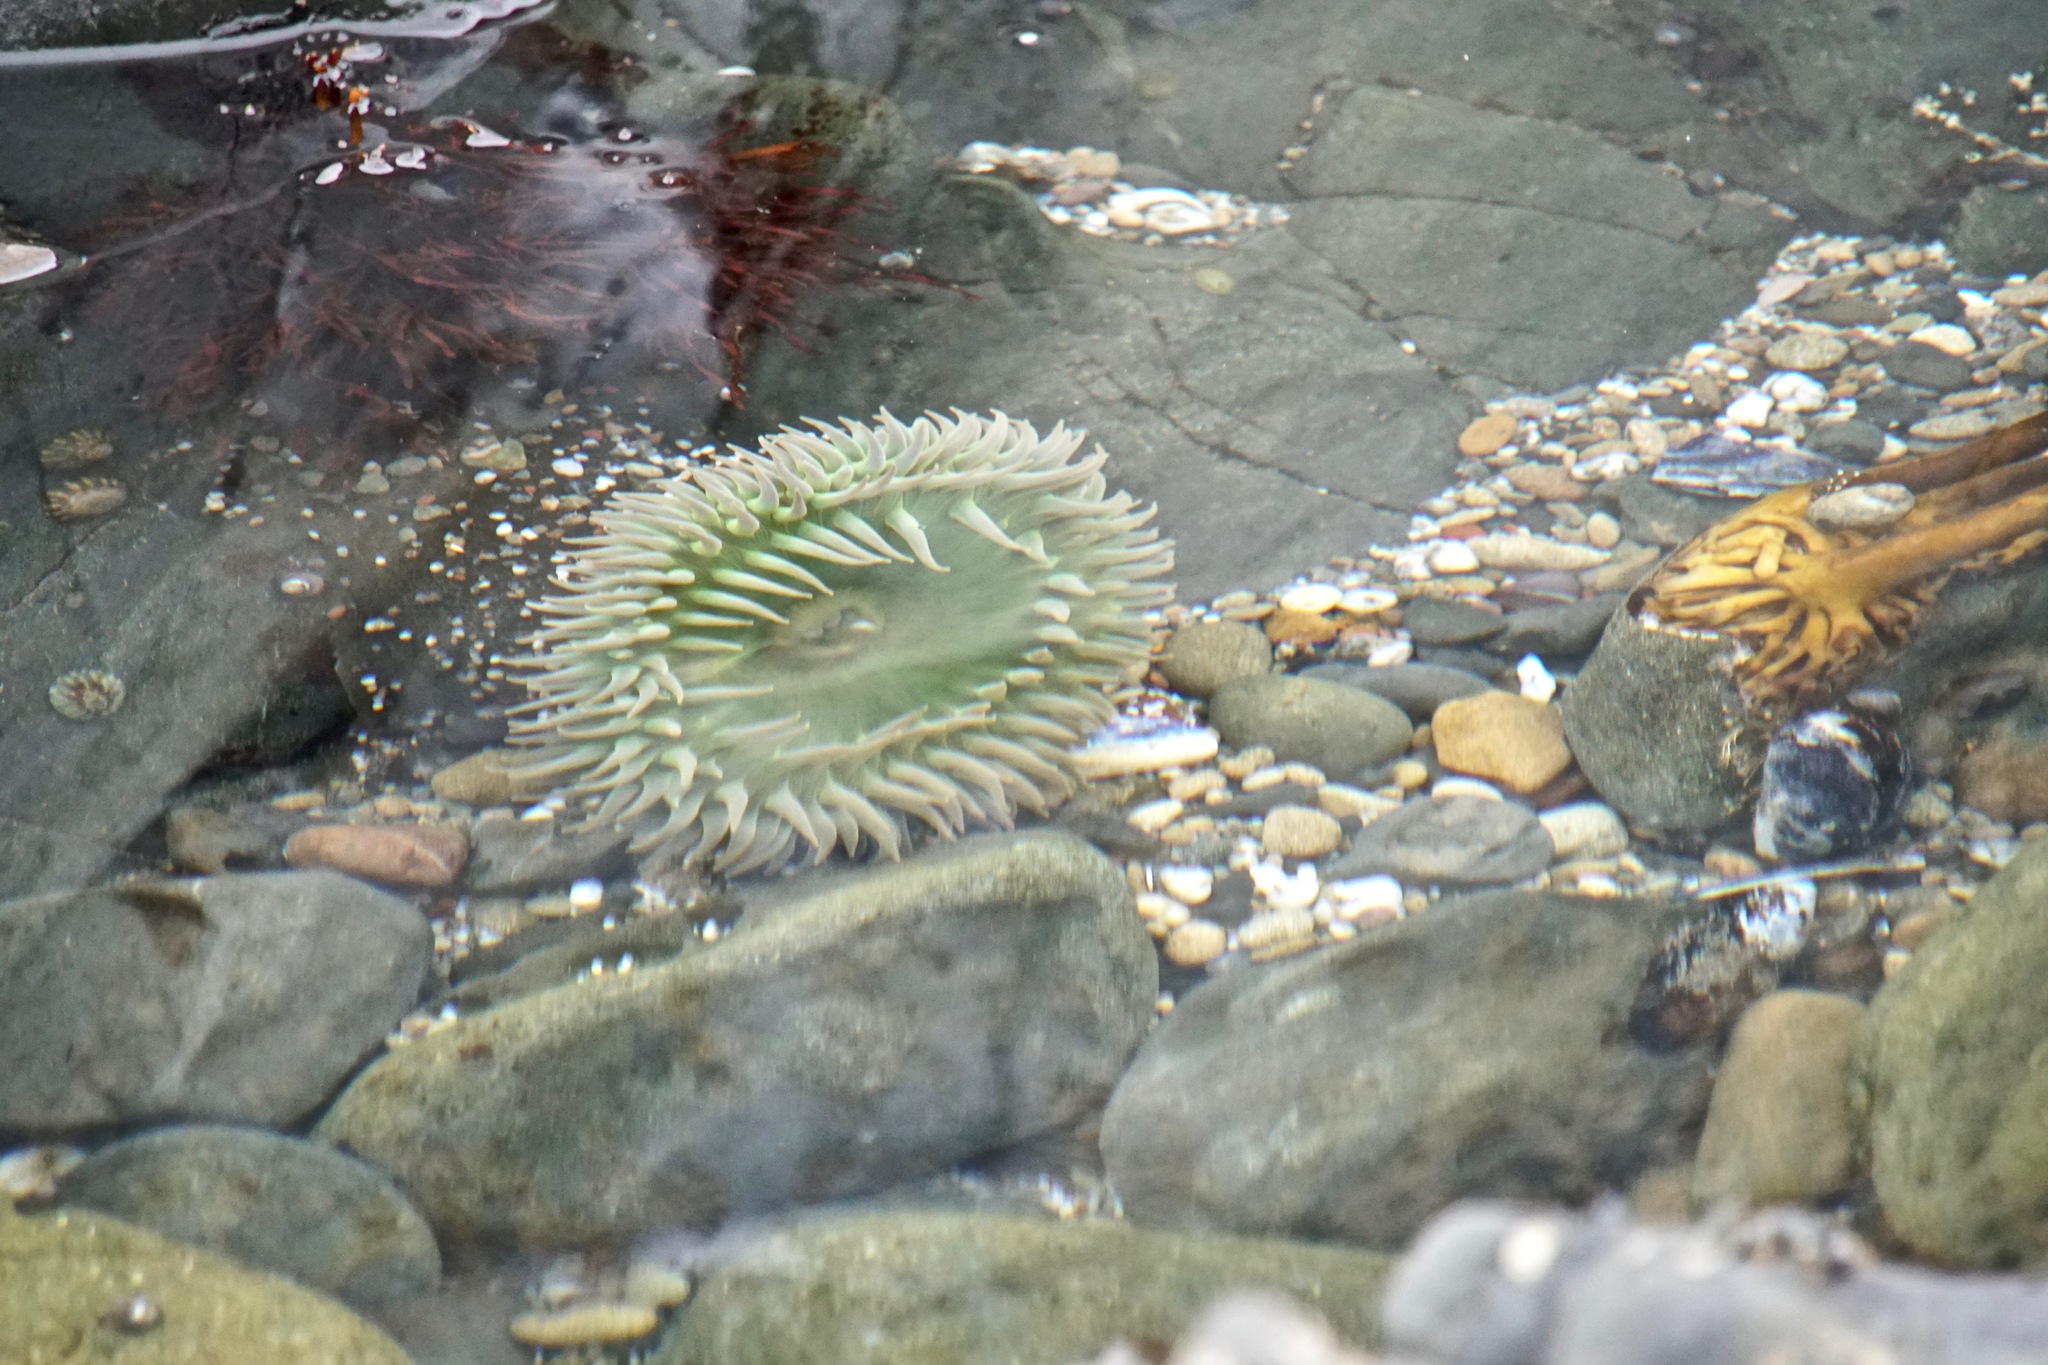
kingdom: Animalia
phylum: Cnidaria
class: Anthozoa
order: Actiniaria
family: Actiniidae
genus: Anthopleura
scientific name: Anthopleura xanthogrammica
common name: Giant green anemone
